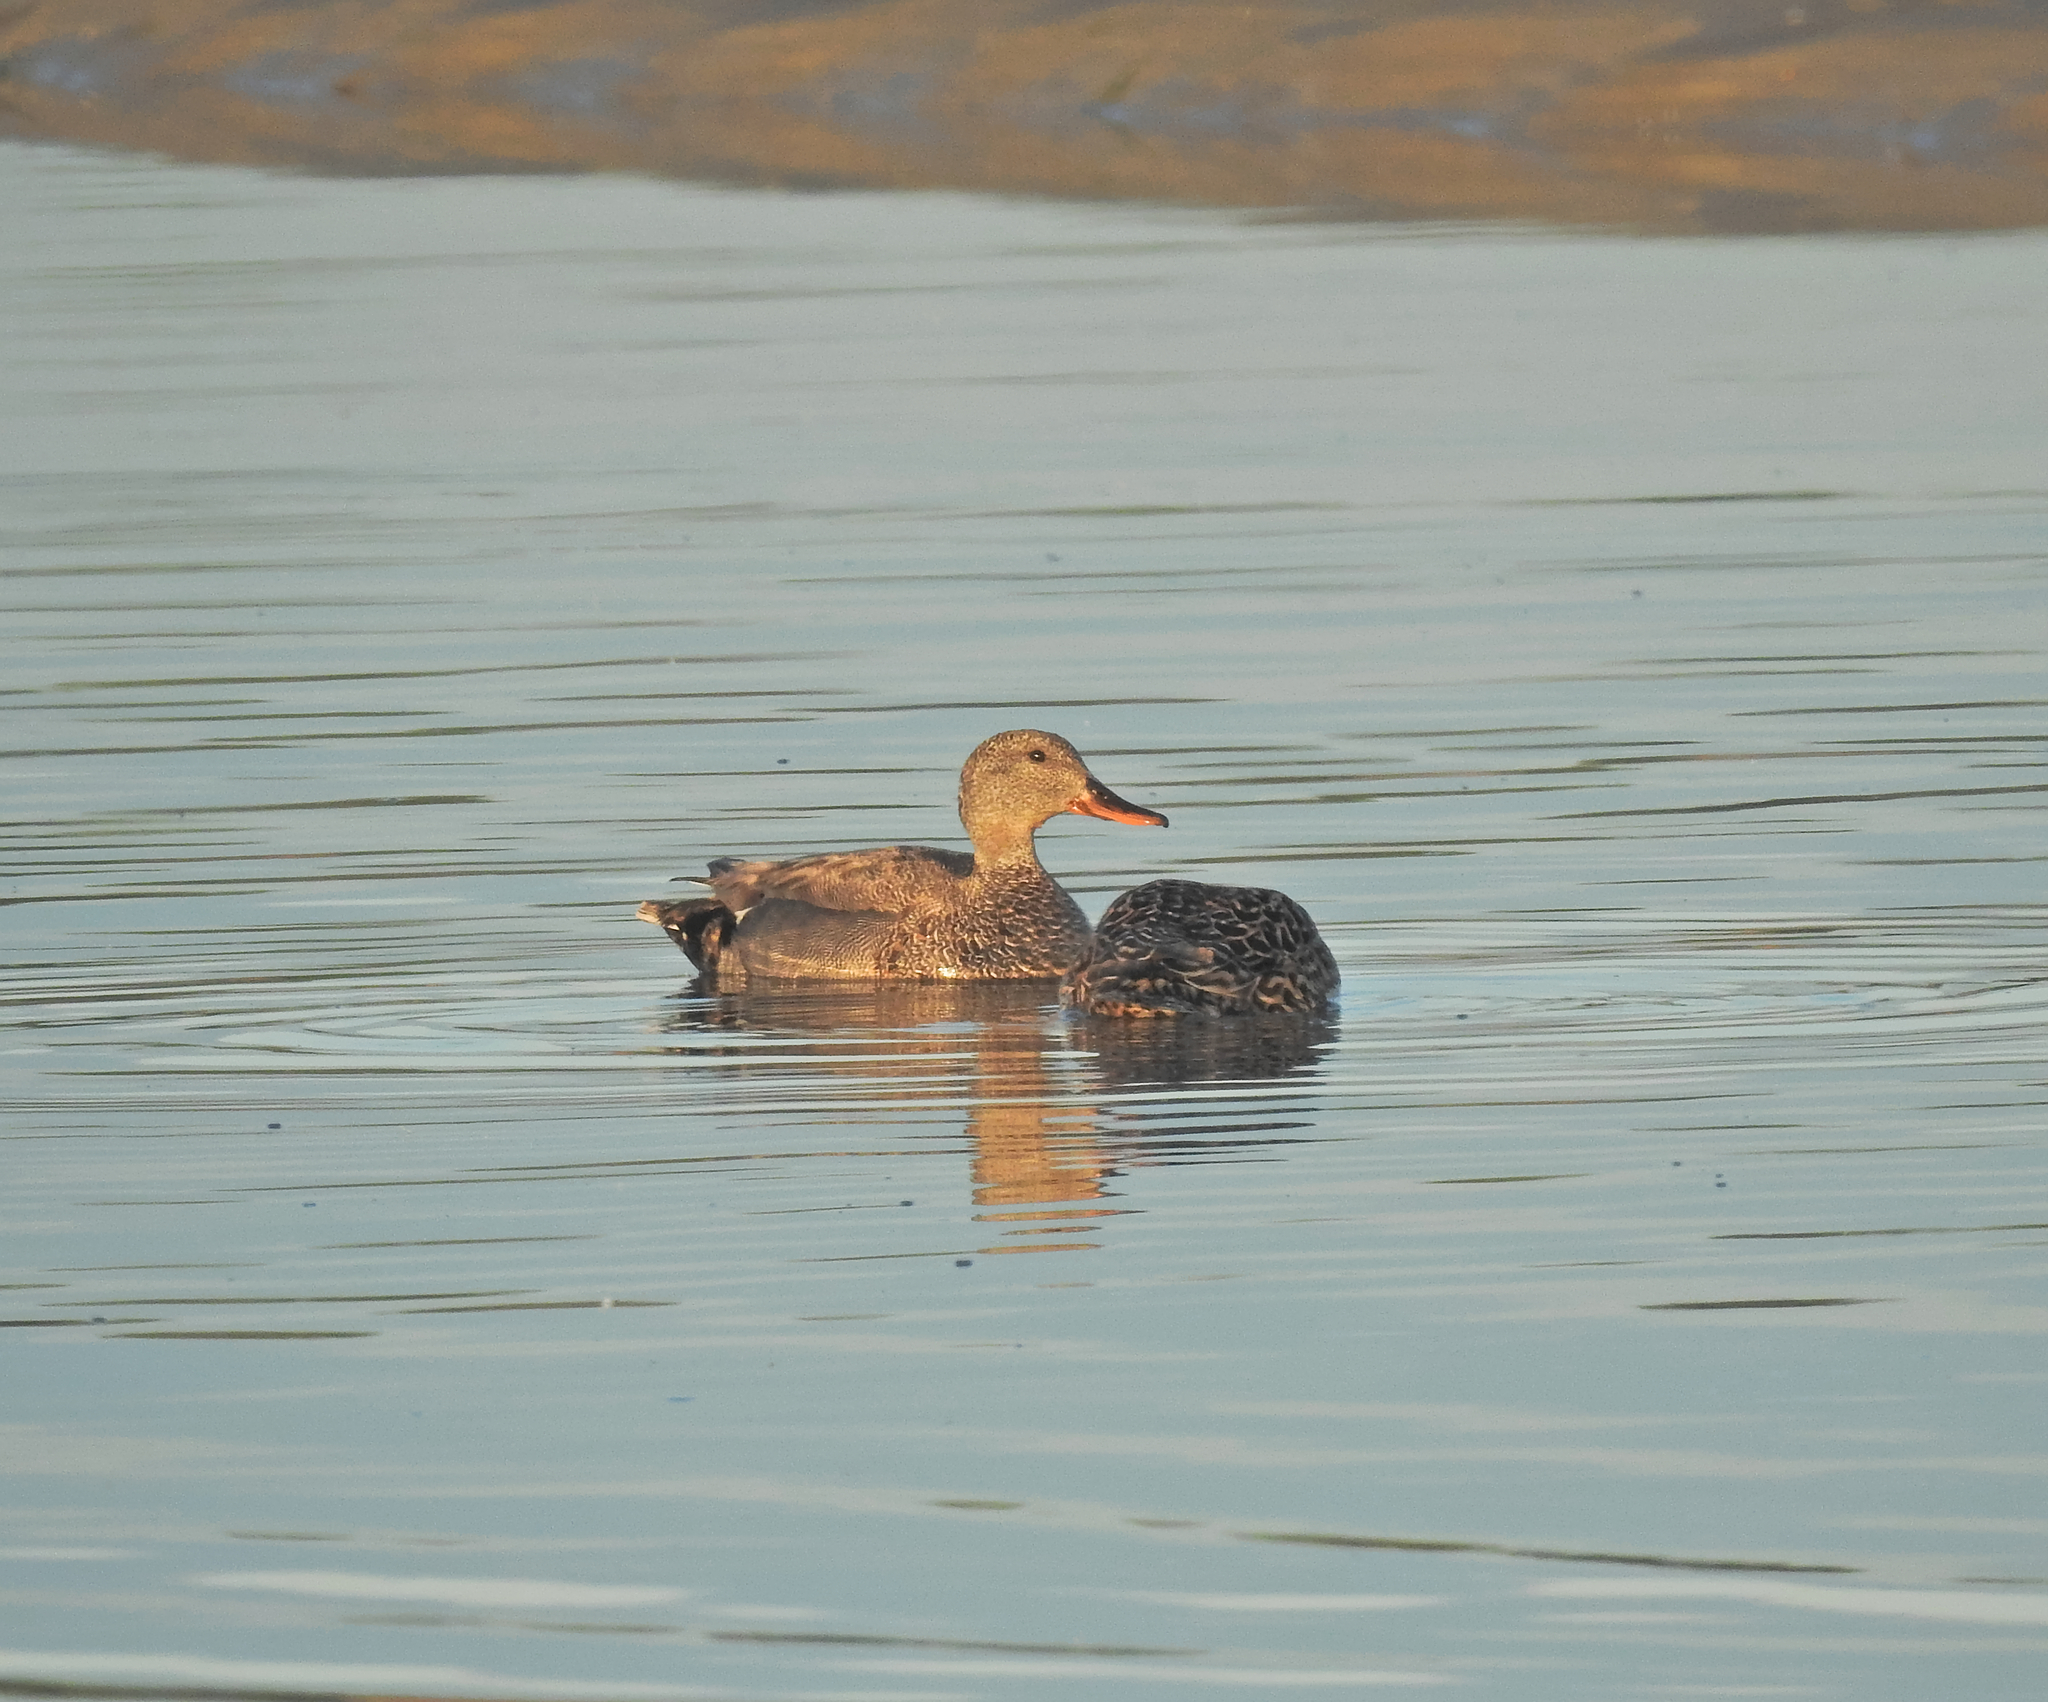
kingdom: Animalia
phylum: Chordata
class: Aves
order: Anseriformes
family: Anatidae
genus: Mareca
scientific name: Mareca strepera
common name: Gadwall
